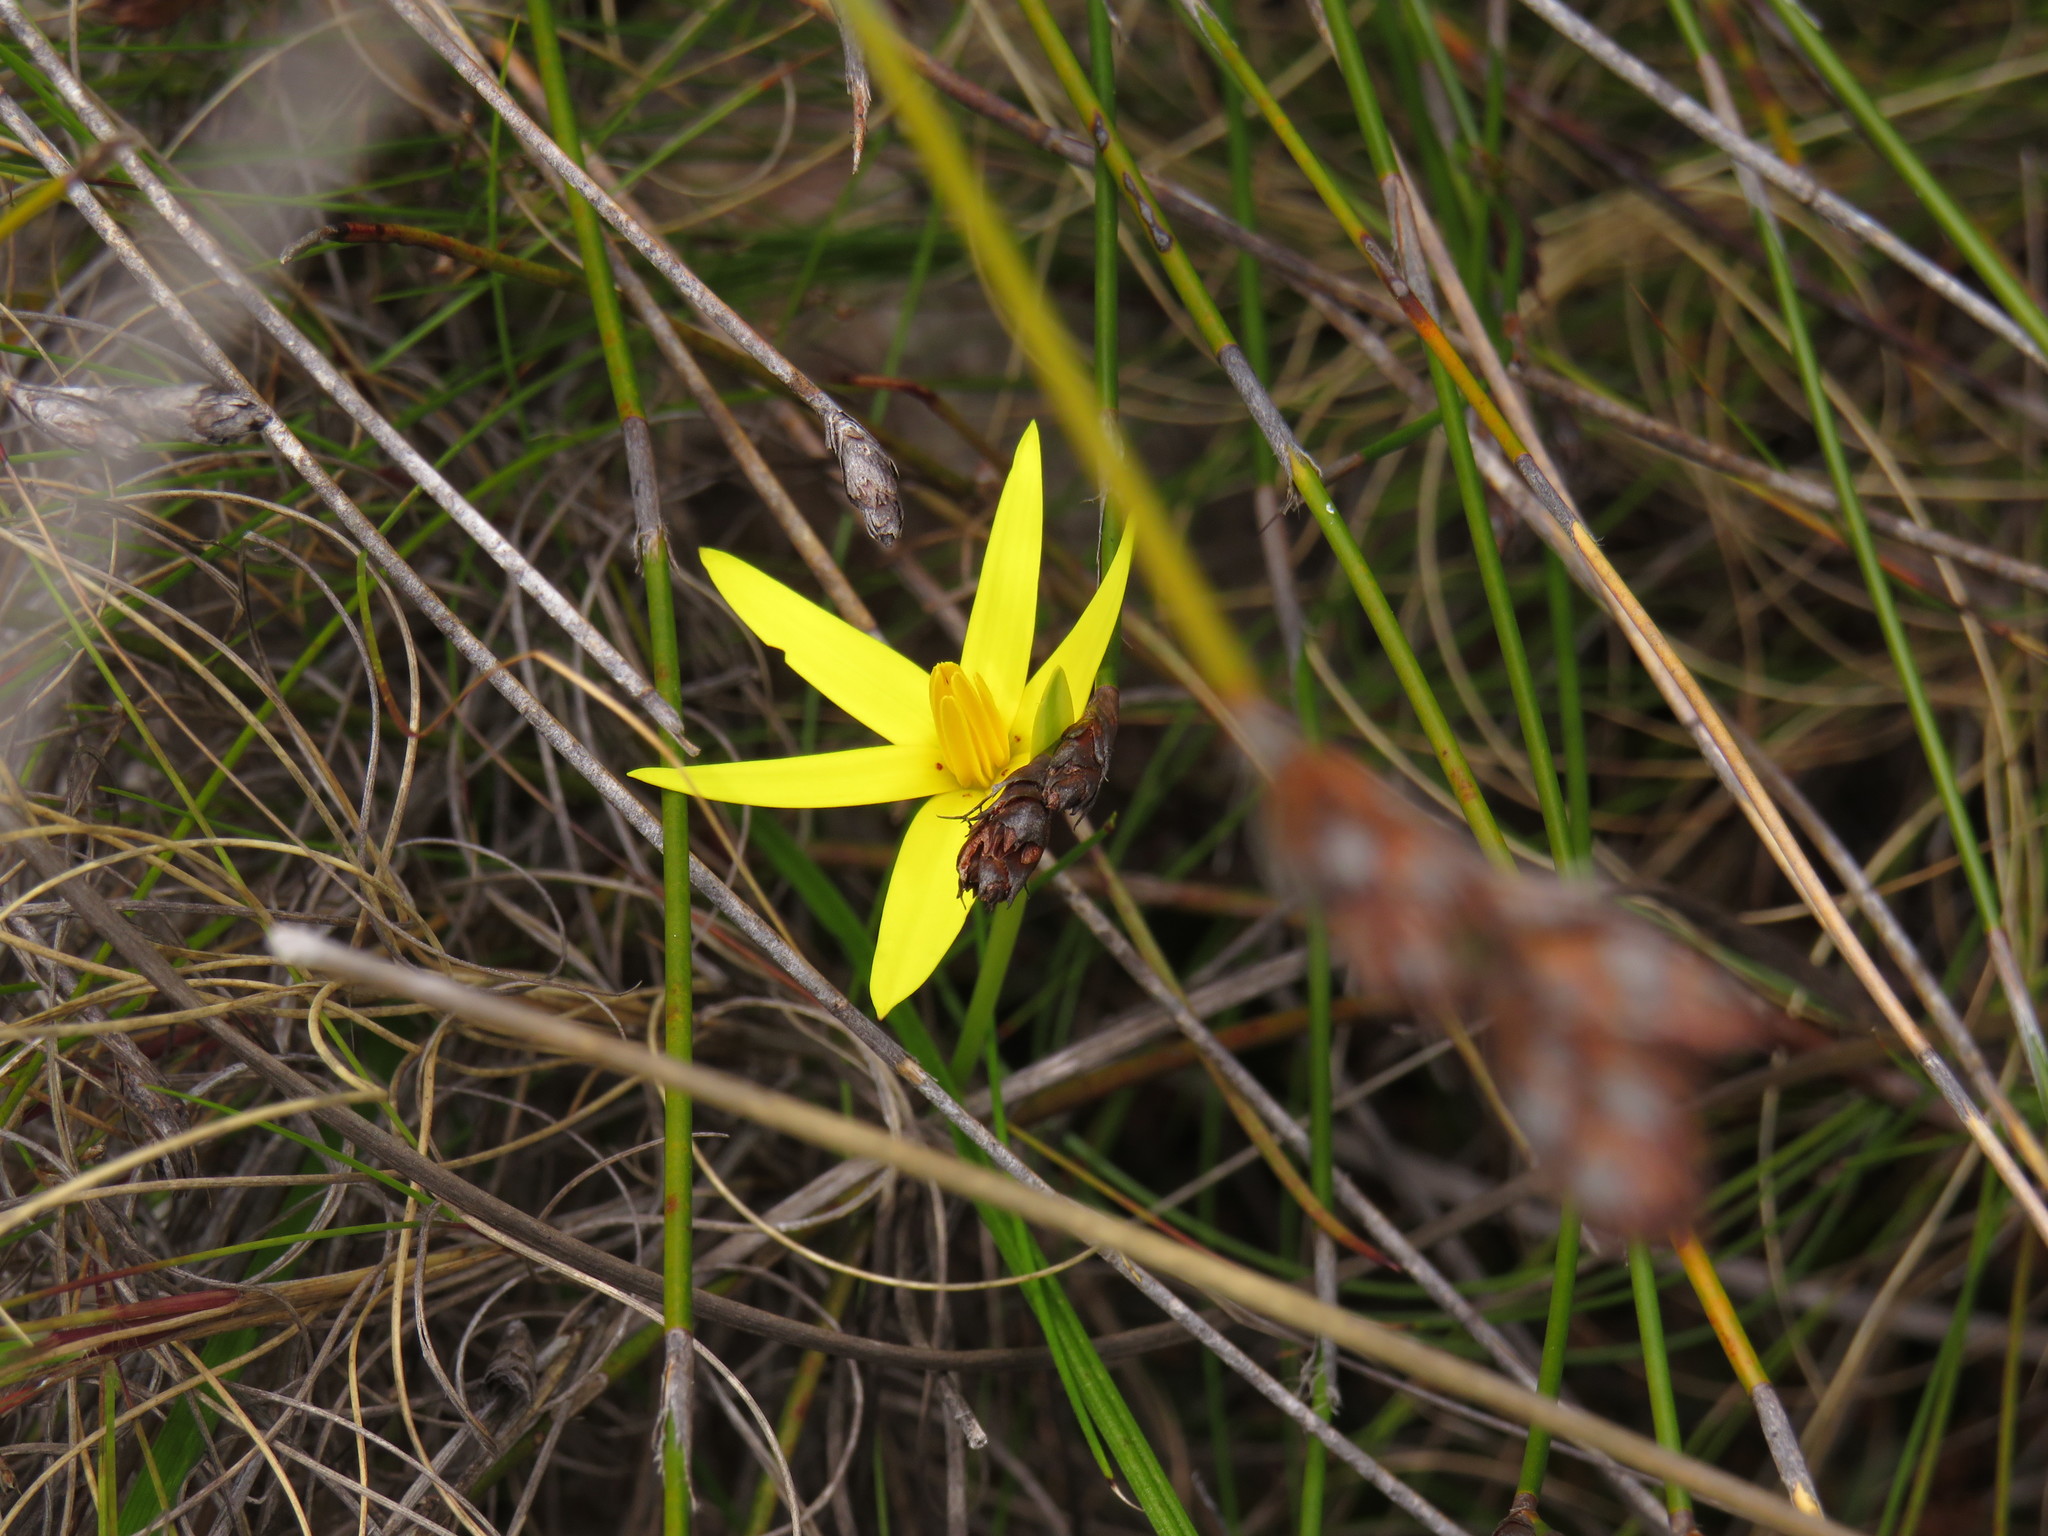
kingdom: Plantae
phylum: Tracheophyta
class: Liliopsida
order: Asparagales
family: Hypoxidaceae
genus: Pauridia
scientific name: Pauridia capensis
